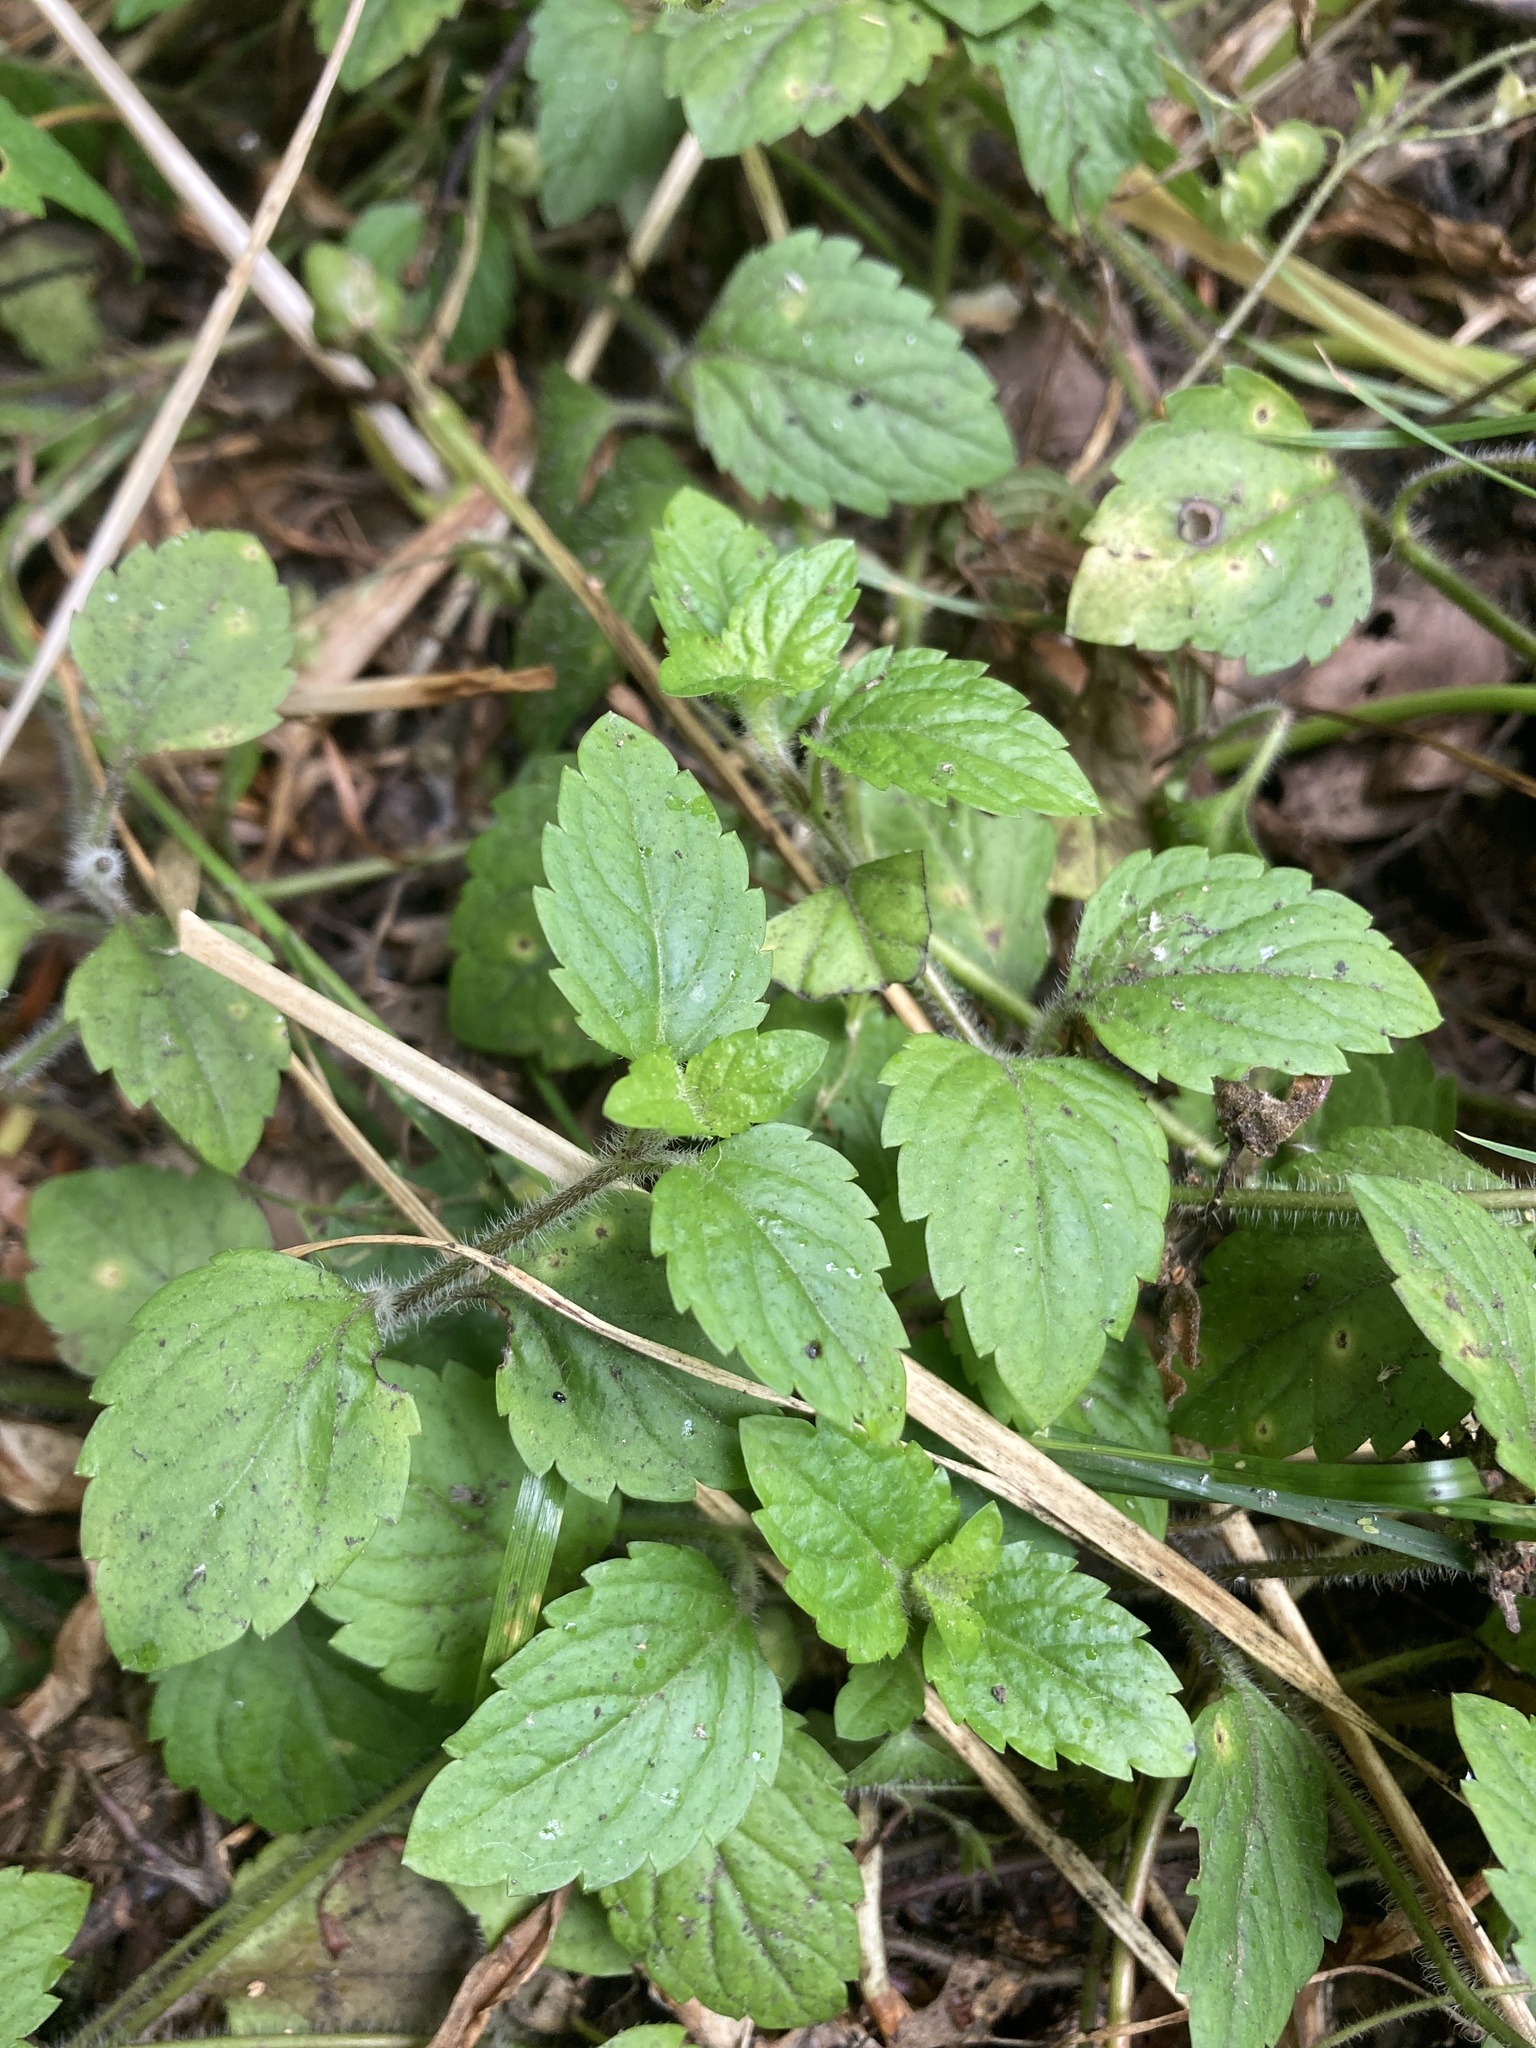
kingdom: Plantae
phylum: Tracheophyta
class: Magnoliopsida
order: Lamiales
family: Plantaginaceae
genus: Veronica
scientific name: Veronica montana
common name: Wood speedwell
